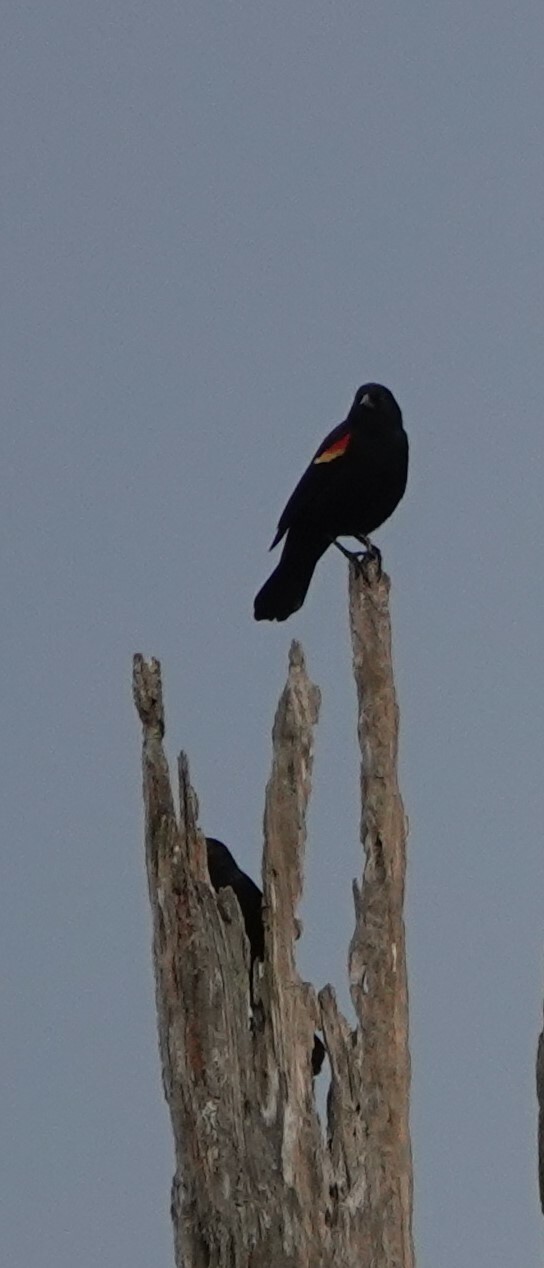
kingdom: Animalia
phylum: Chordata
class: Aves
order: Passeriformes
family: Icteridae
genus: Agelaius
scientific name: Agelaius phoeniceus
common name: Red-winged blackbird
